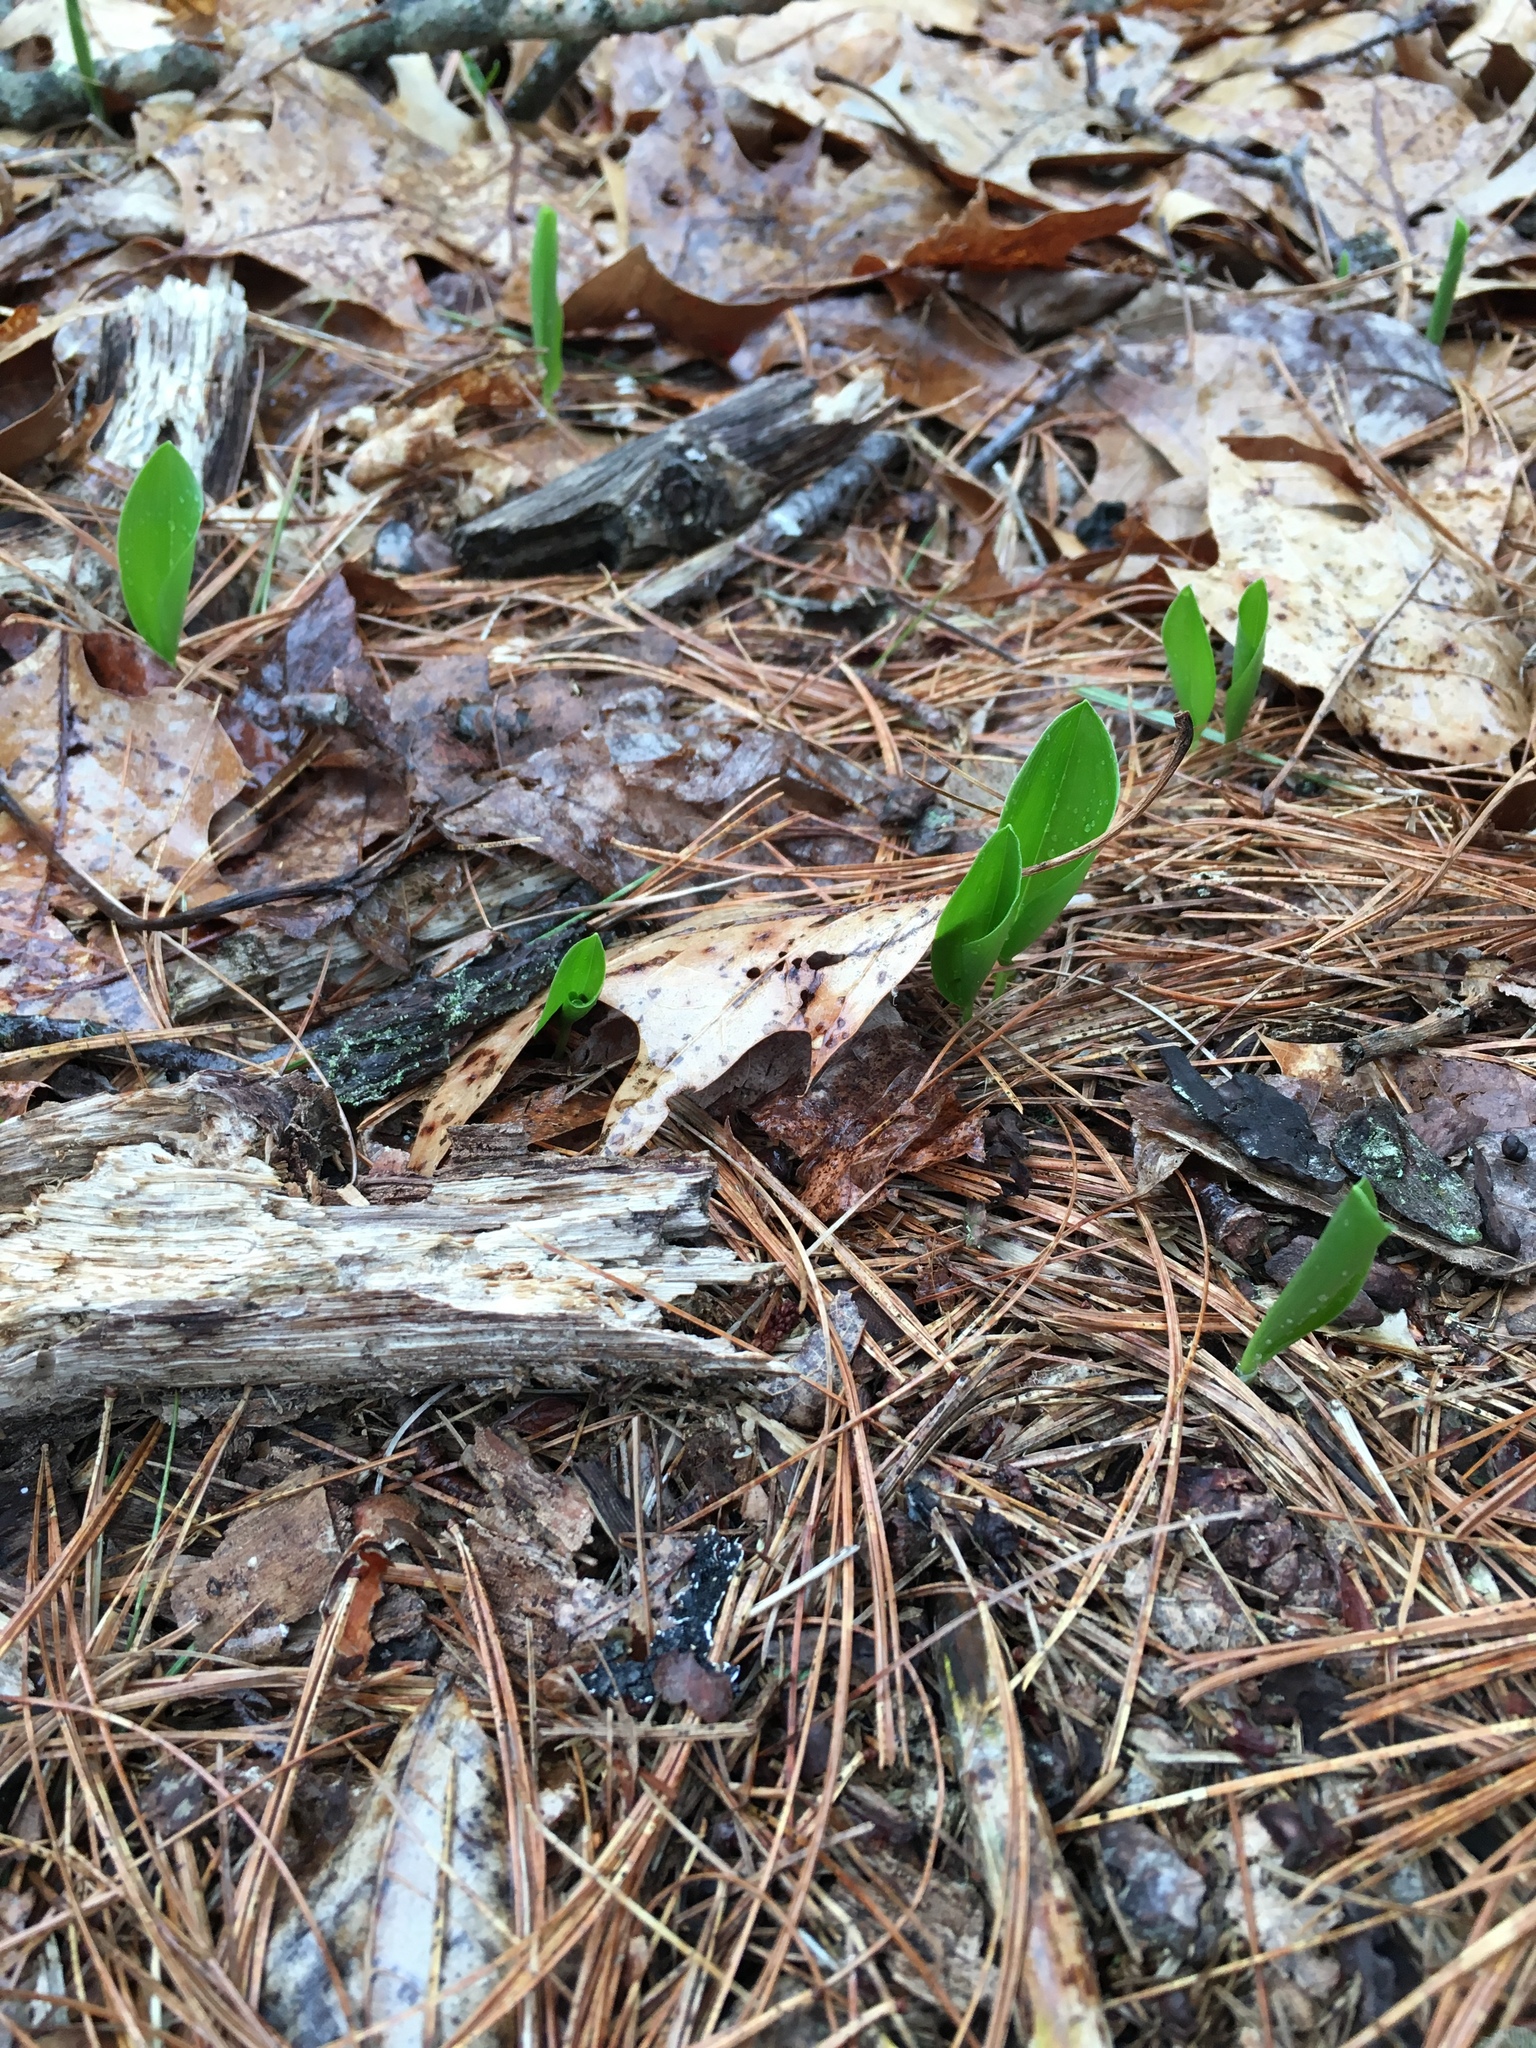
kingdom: Plantae
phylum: Tracheophyta
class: Liliopsida
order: Asparagales
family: Asparagaceae
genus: Maianthemum
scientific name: Maianthemum canadense
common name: False lily-of-the-valley
